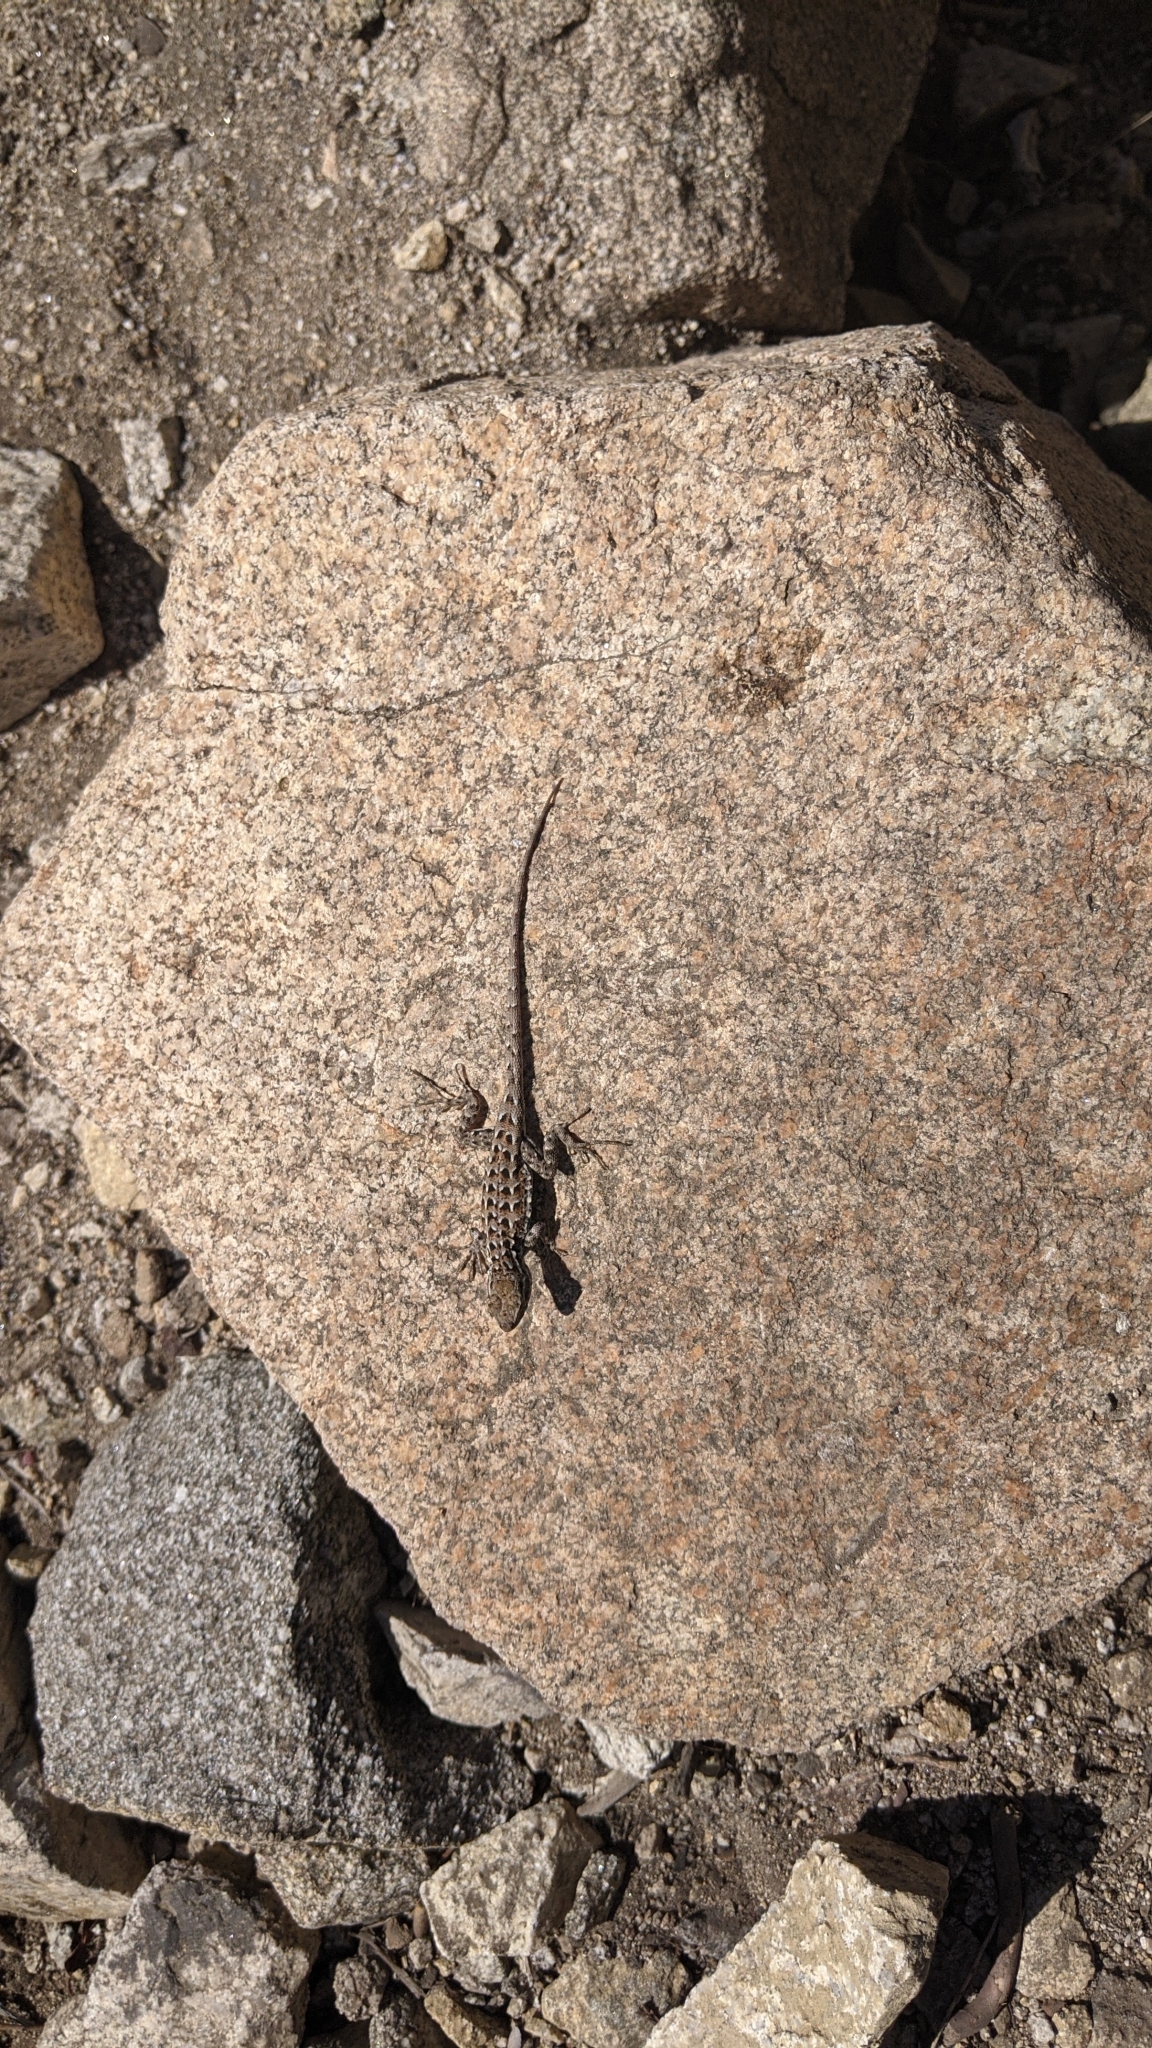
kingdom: Animalia
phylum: Chordata
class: Squamata
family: Phrynosomatidae
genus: Sceloporus
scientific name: Sceloporus occidentalis
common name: Western fence lizard
